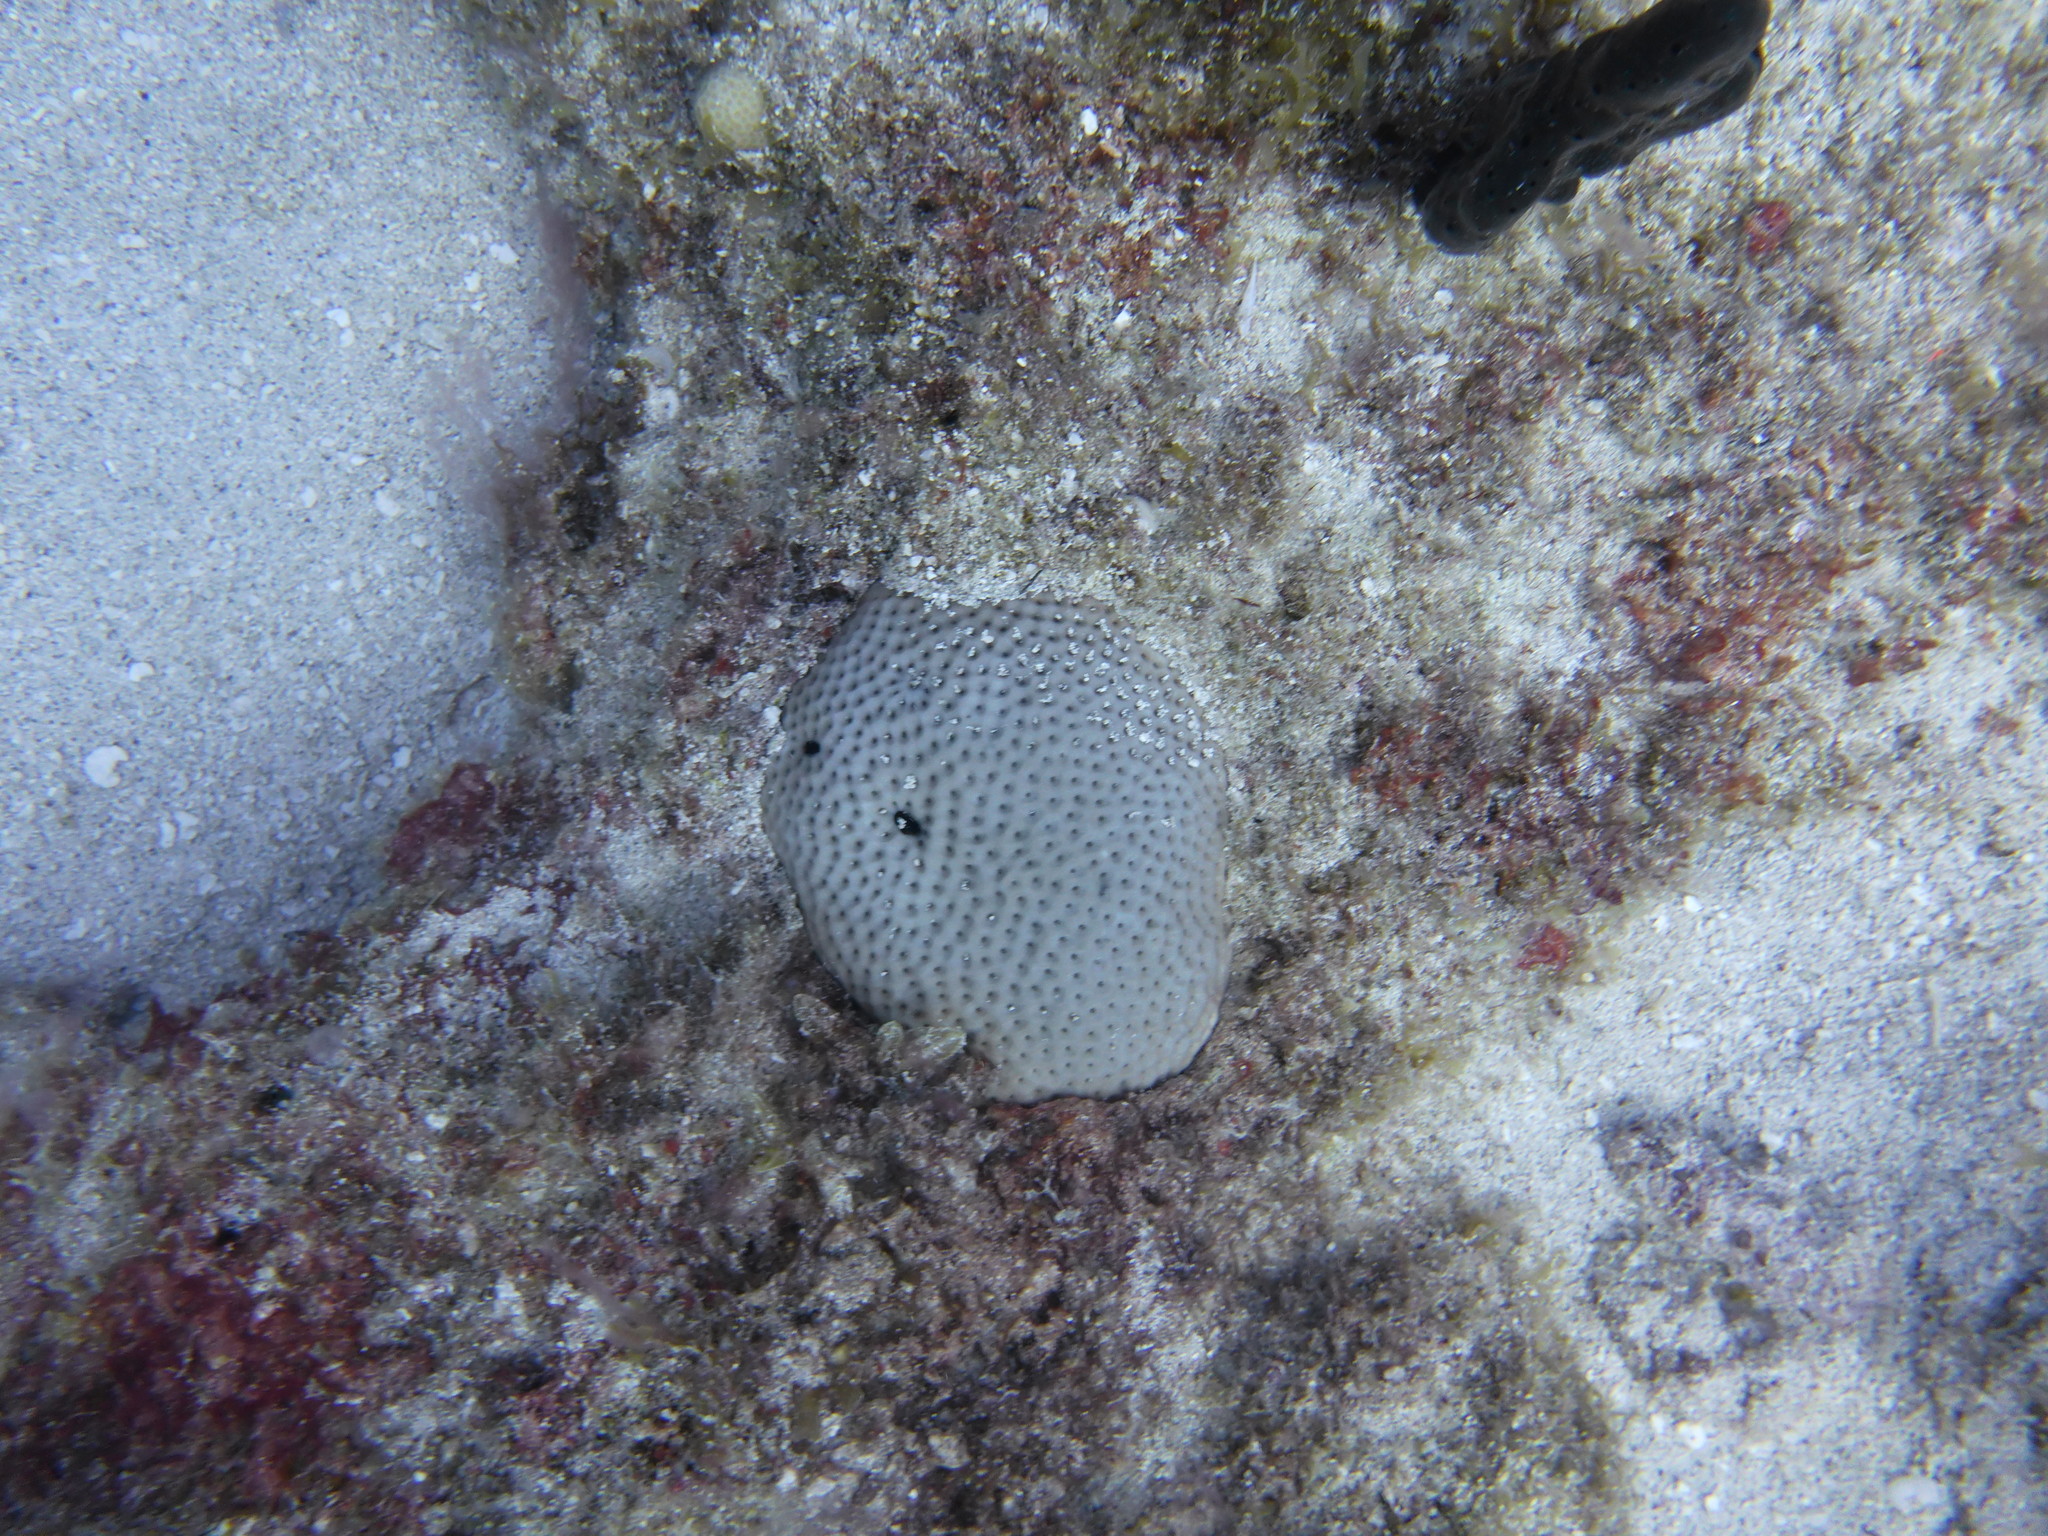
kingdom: Animalia
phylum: Cnidaria
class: Anthozoa
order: Scleractinia
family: Rhizangiidae
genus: Siderastrea
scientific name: Siderastrea siderea
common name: Massive starlet coral
